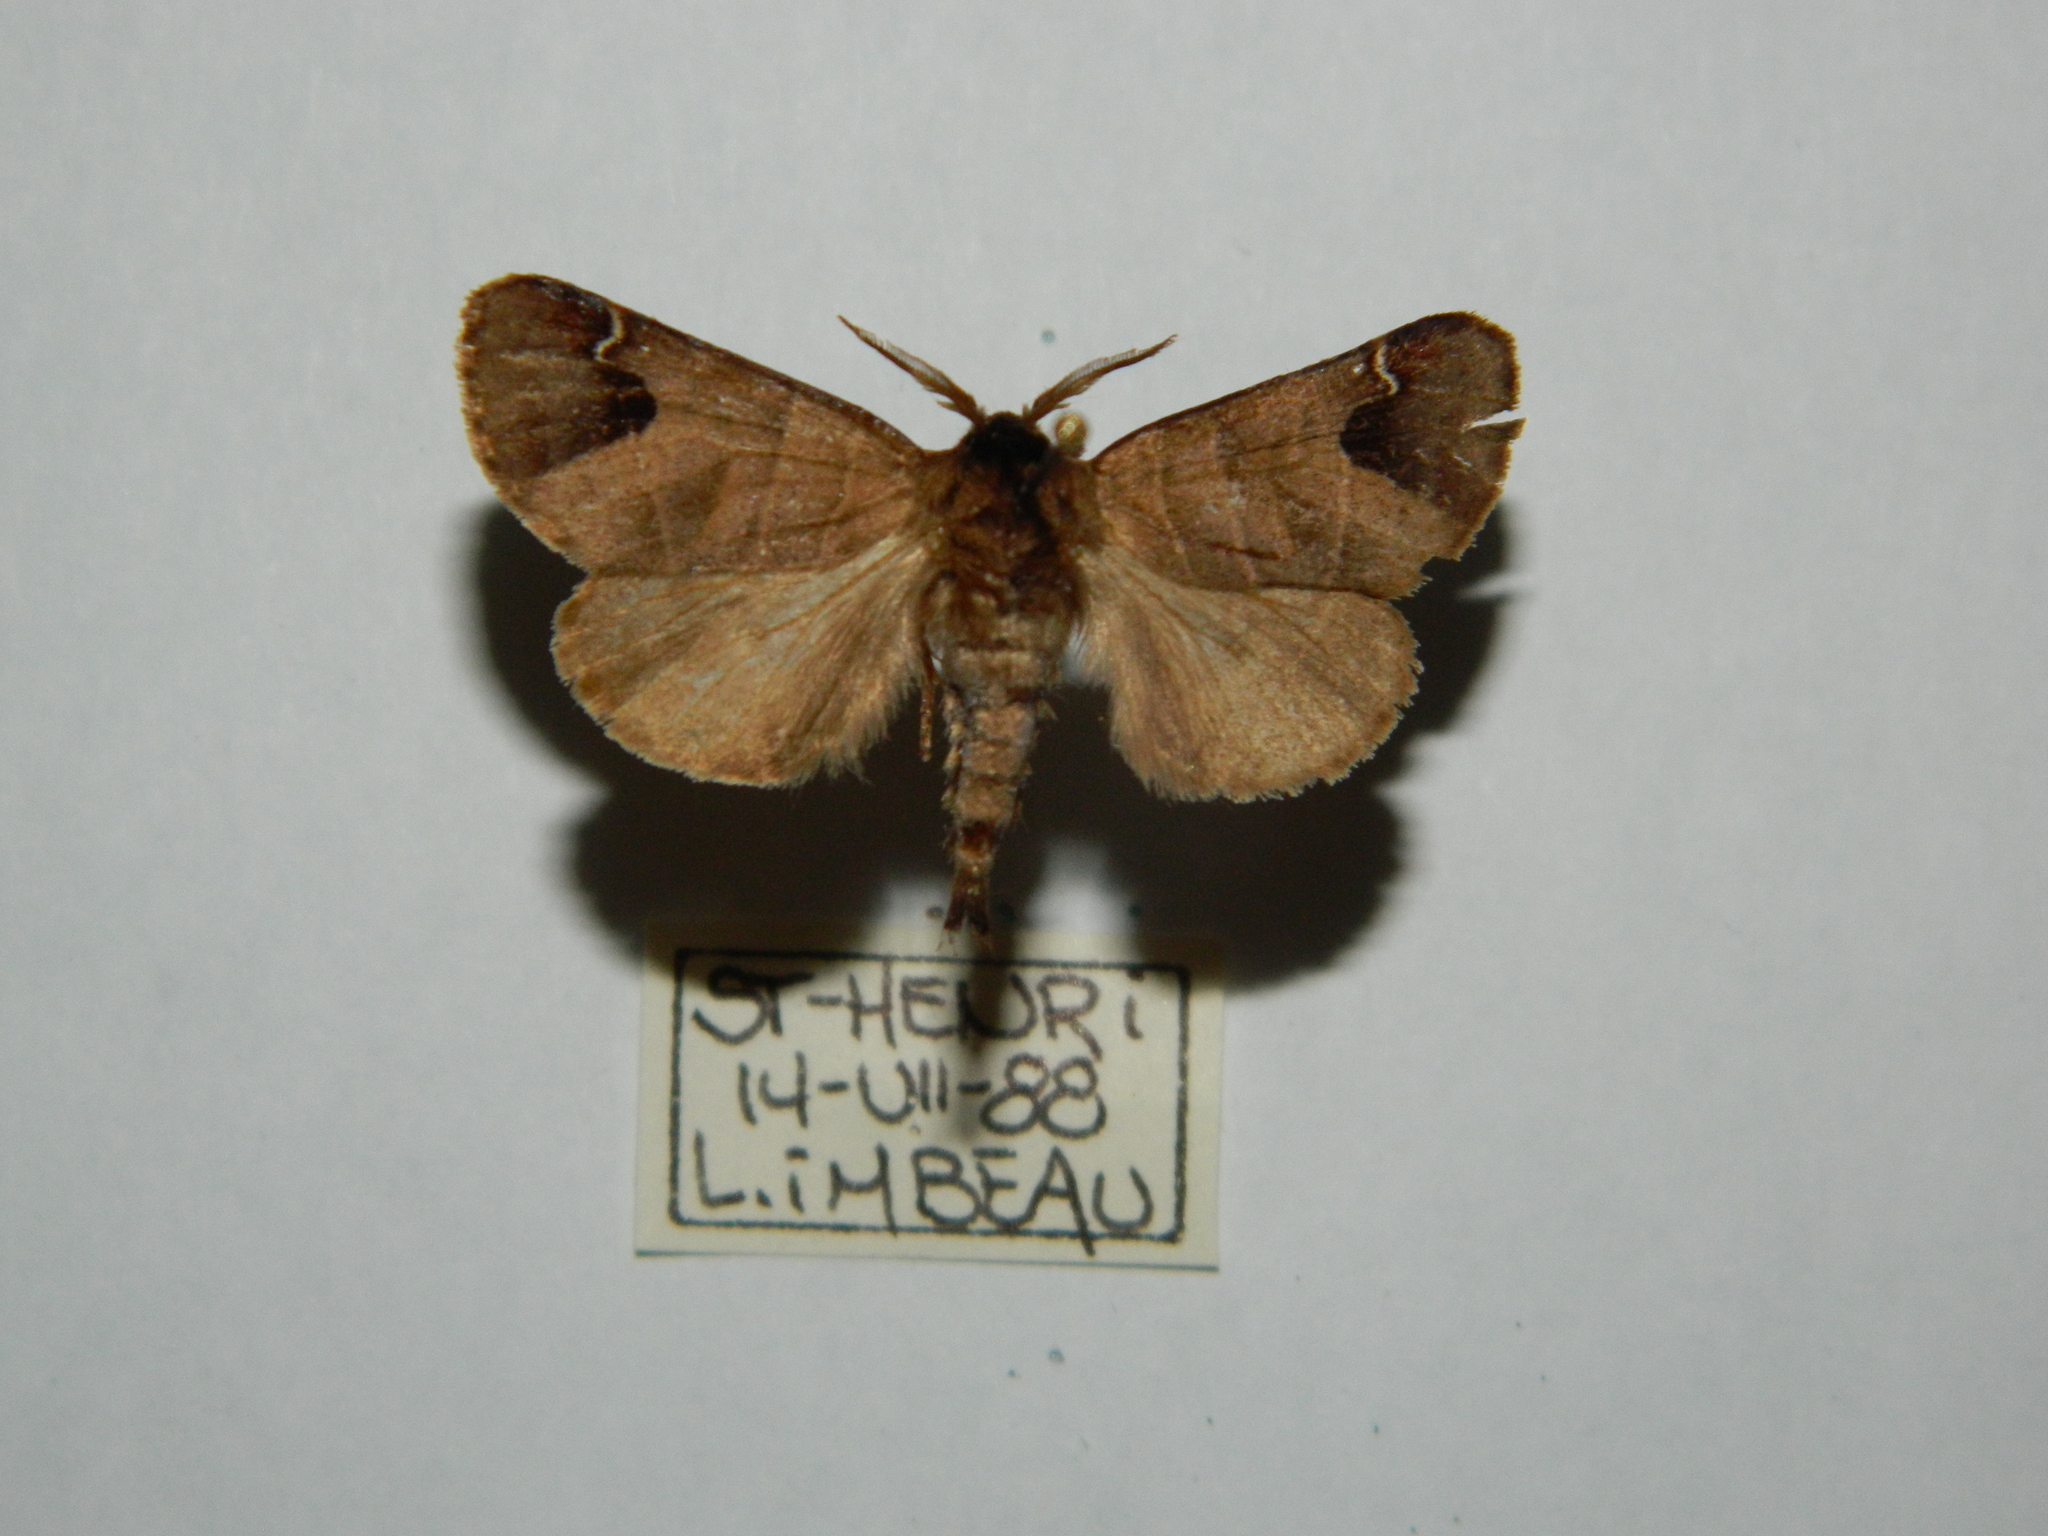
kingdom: Animalia
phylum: Arthropoda
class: Insecta
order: Lepidoptera
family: Notodontidae
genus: Clostera
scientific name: Clostera albosigma
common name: Sigmoid prominent
